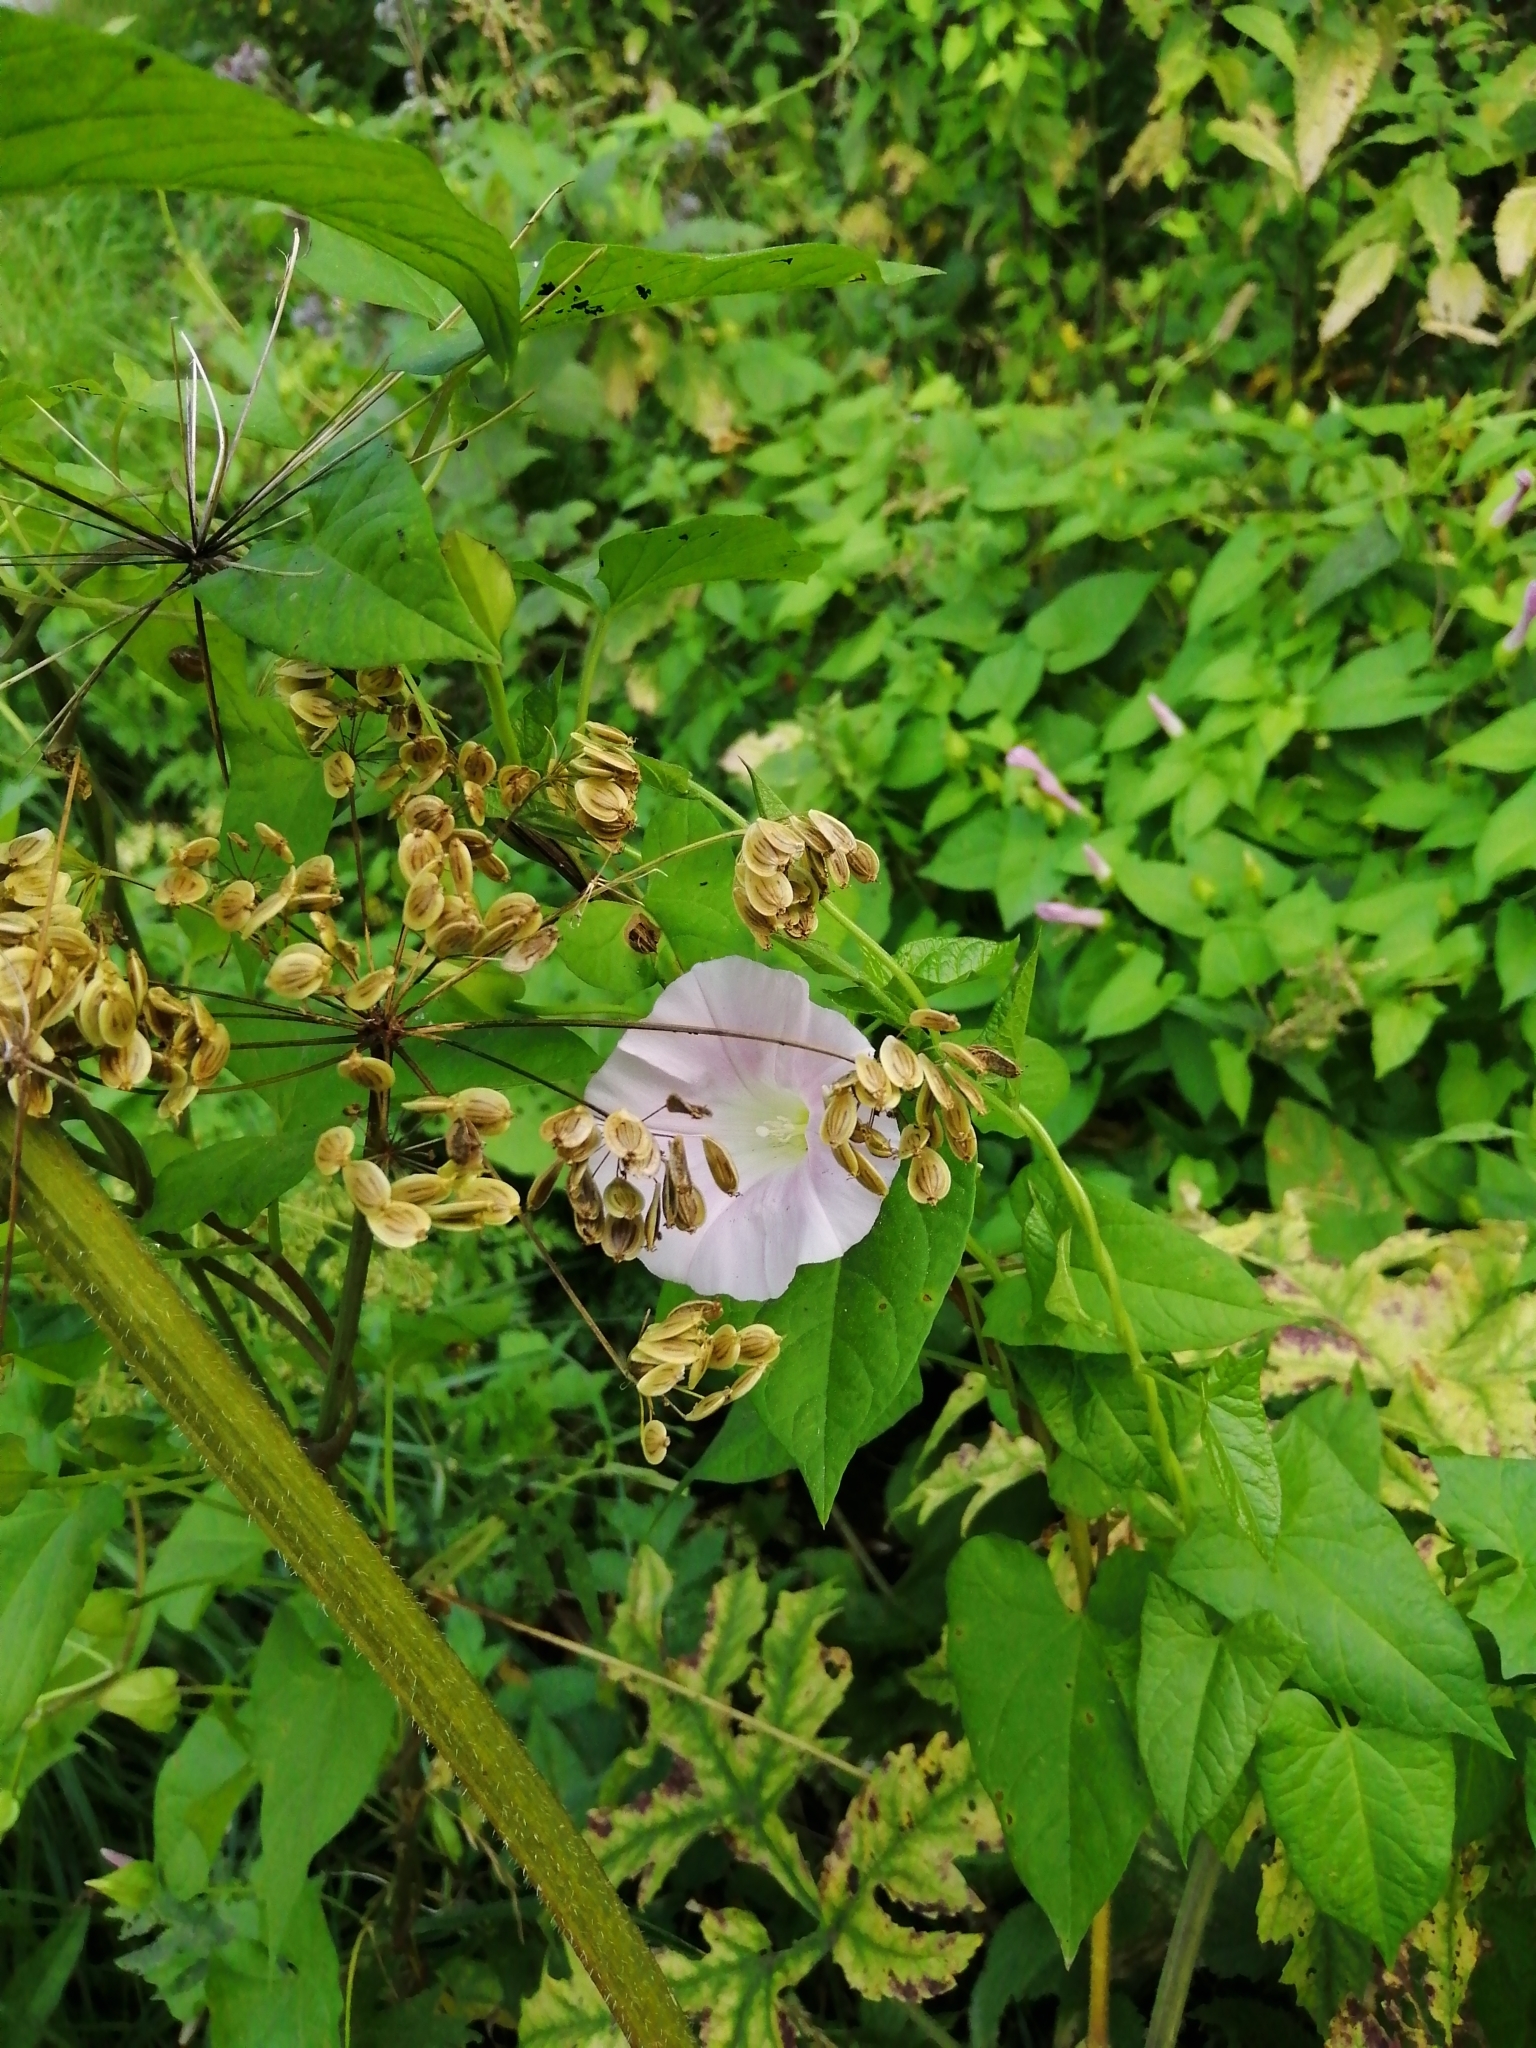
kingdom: Plantae
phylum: Tracheophyta
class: Magnoliopsida
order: Solanales
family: Convolvulaceae
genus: Calystegia
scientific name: Calystegia sepium
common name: Hedge bindweed
